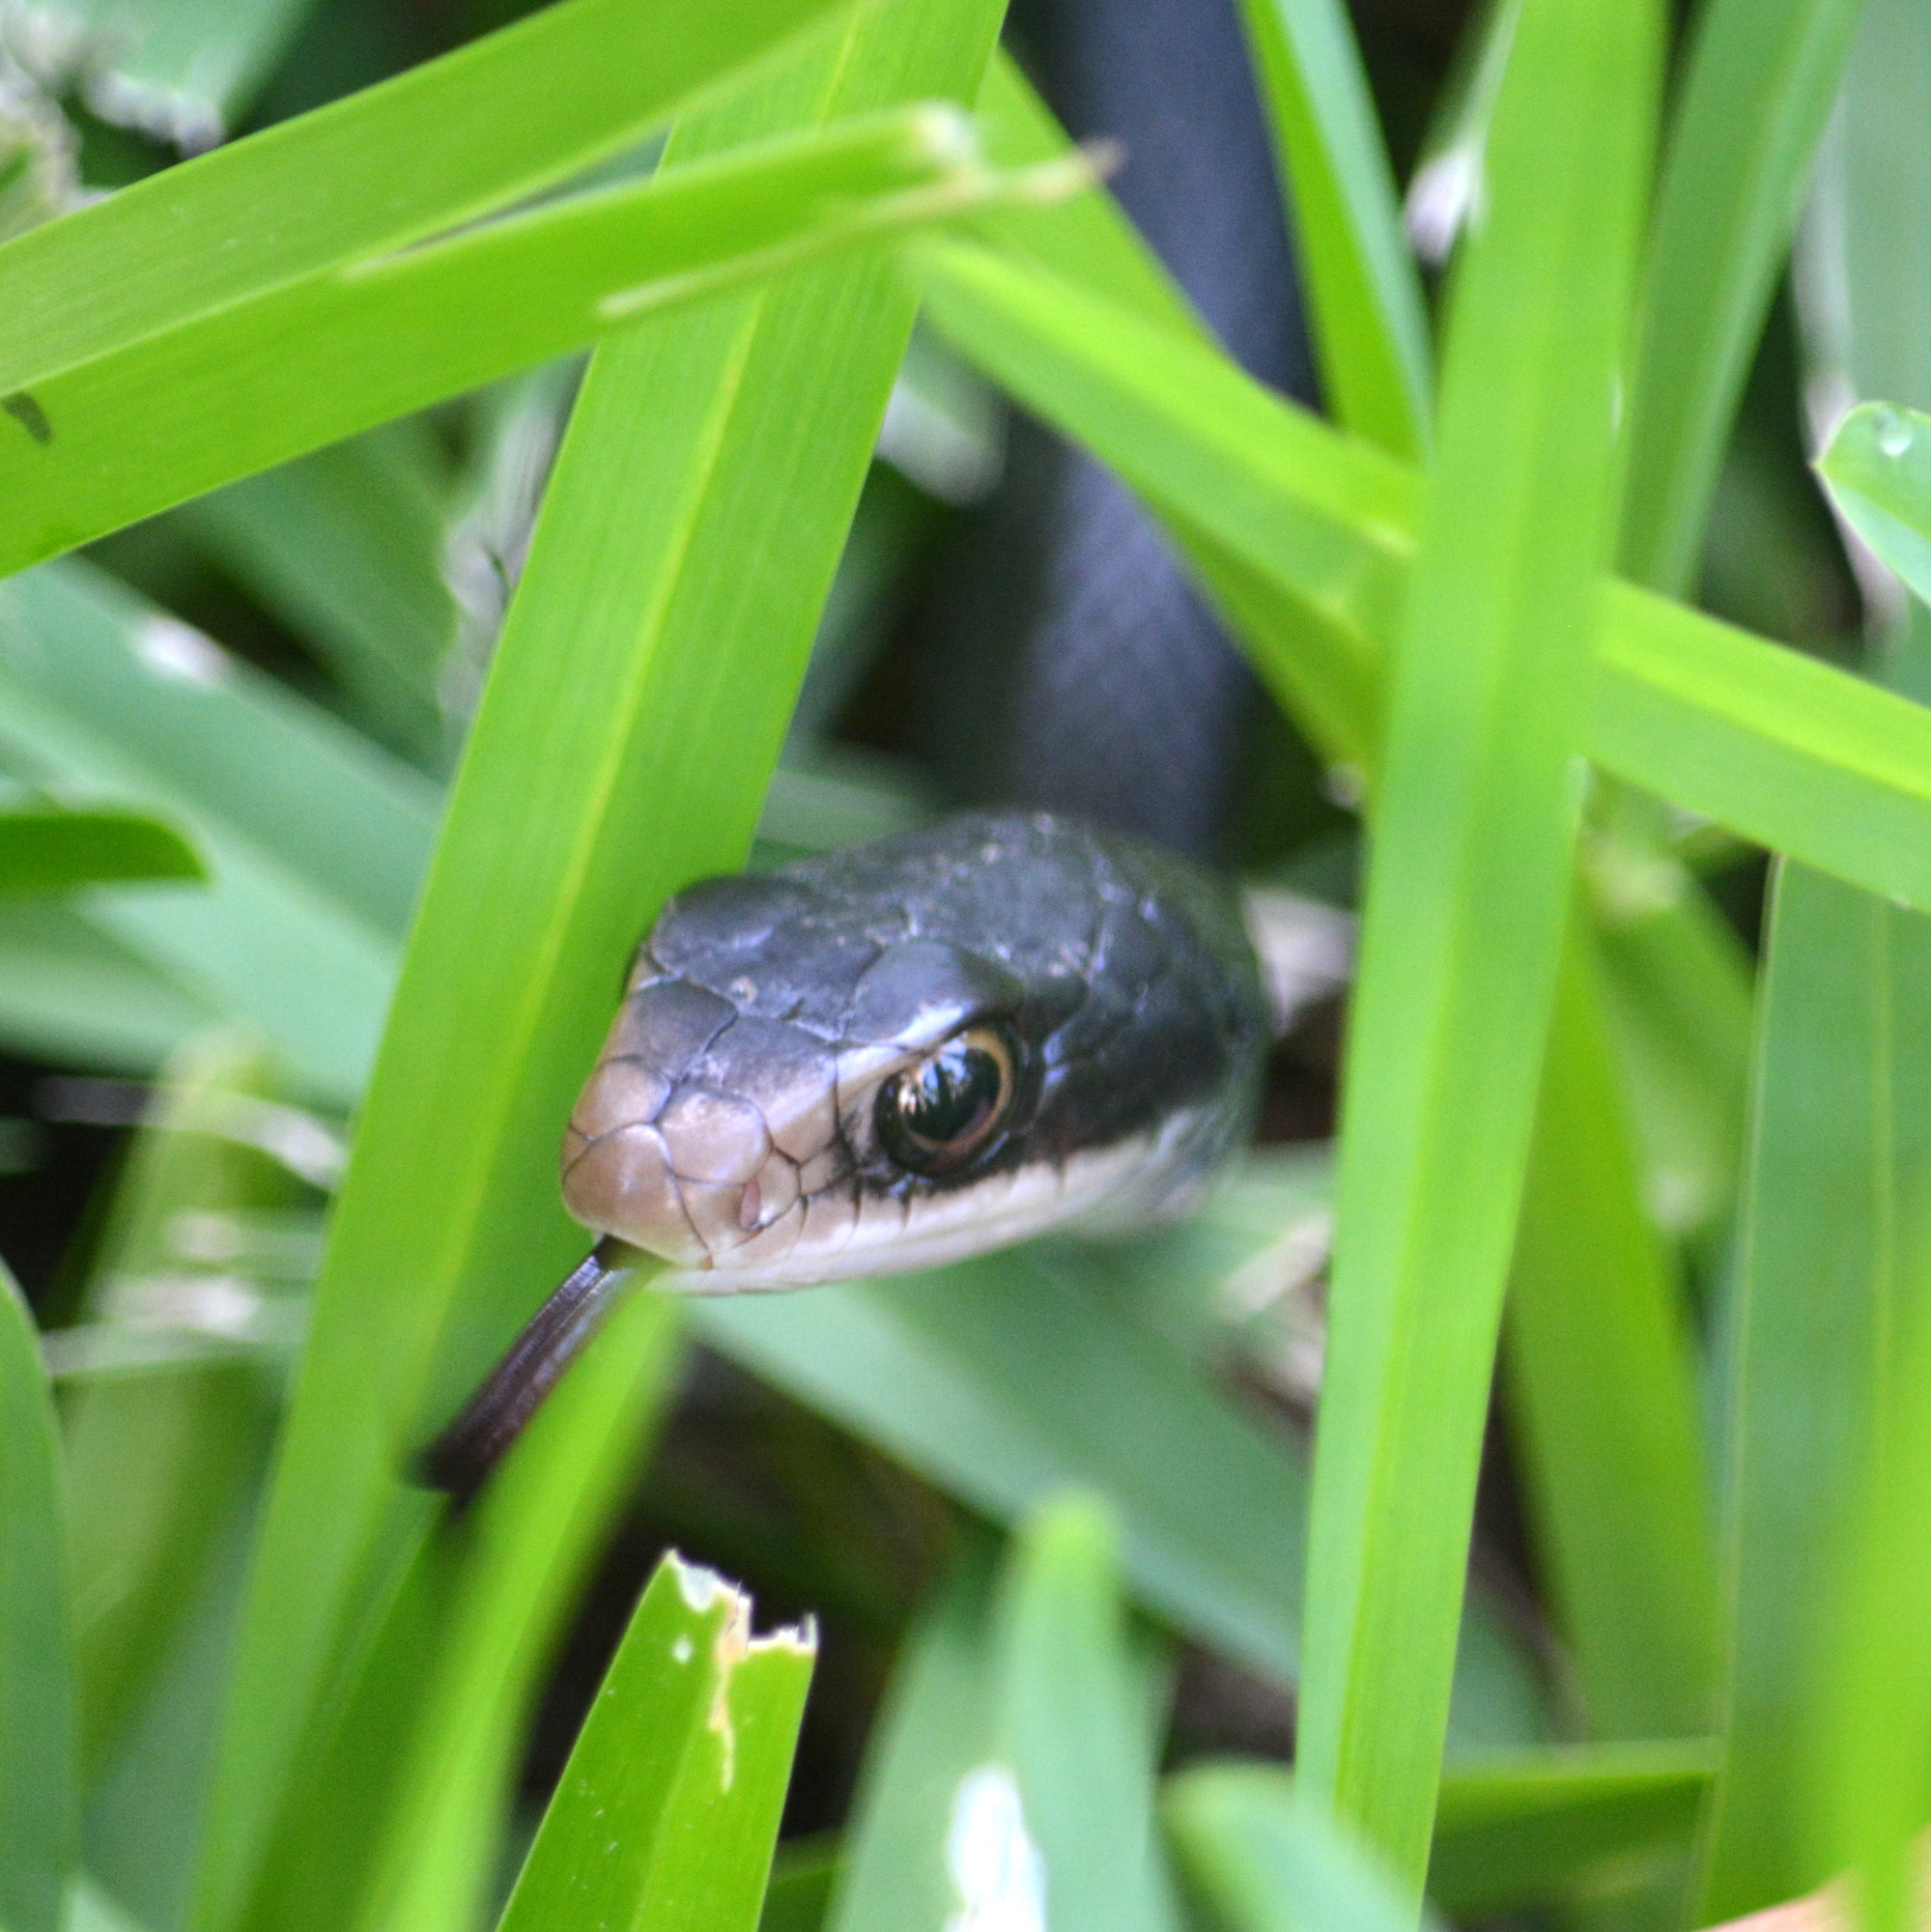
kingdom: Animalia
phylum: Chordata
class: Squamata
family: Colubridae
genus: Coluber
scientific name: Coluber constrictor
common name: Eastern racer
